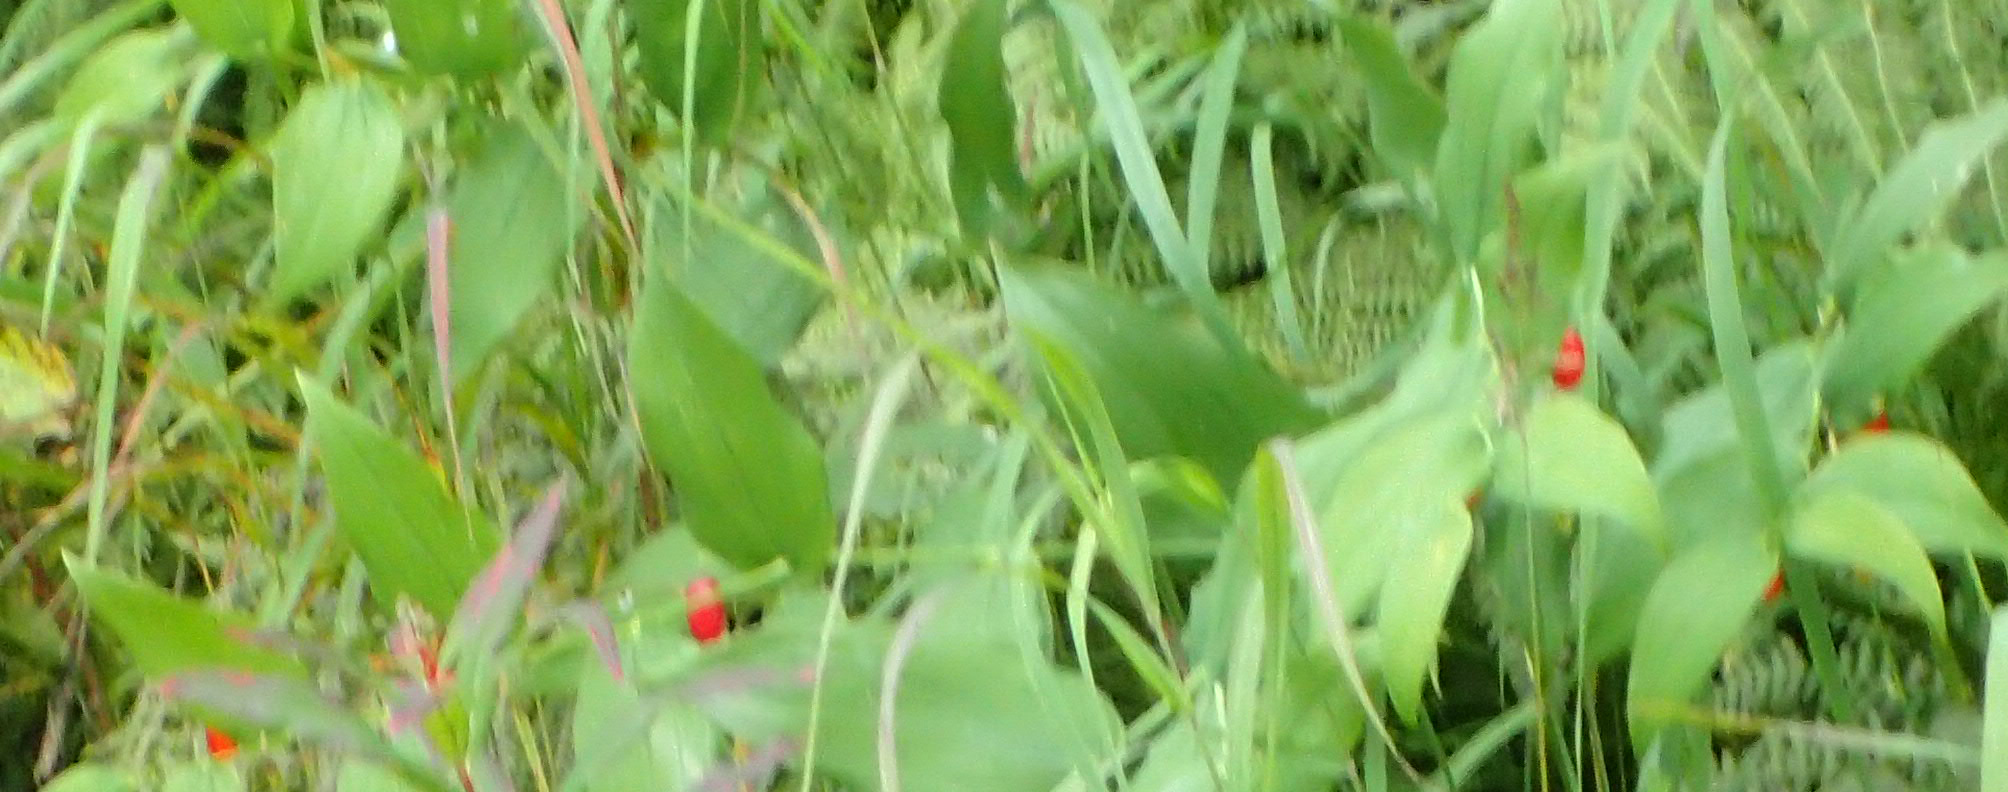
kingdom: Plantae
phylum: Tracheophyta
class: Liliopsida
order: Liliales
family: Liliaceae
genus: Streptopus
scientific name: Streptopus amplexifolius
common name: Clasp twisted stalk
